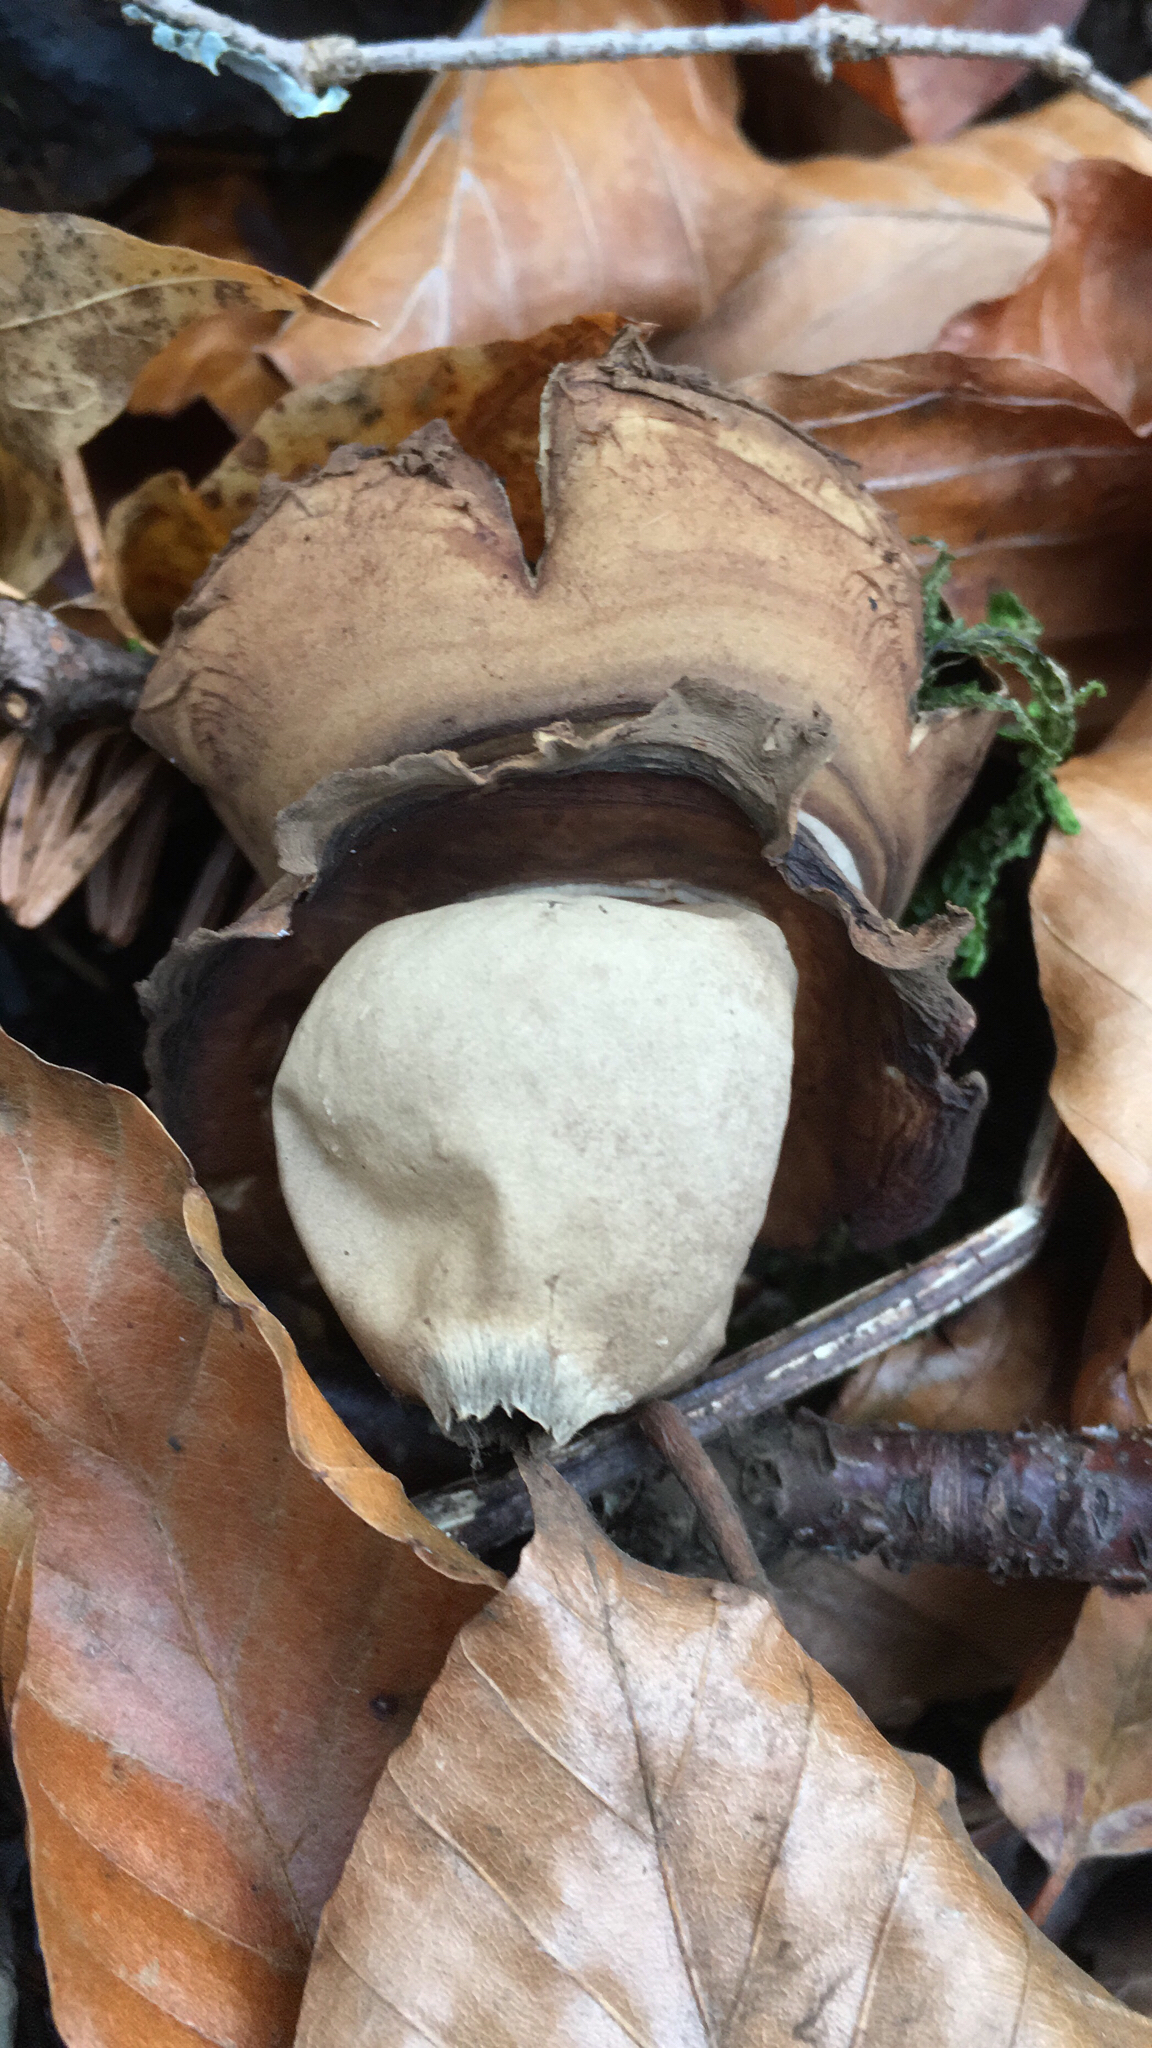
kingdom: Fungi
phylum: Basidiomycota
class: Agaricomycetes
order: Geastrales
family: Geastraceae
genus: Geastrum
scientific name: Geastrum triplex
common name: Collared earthstar
